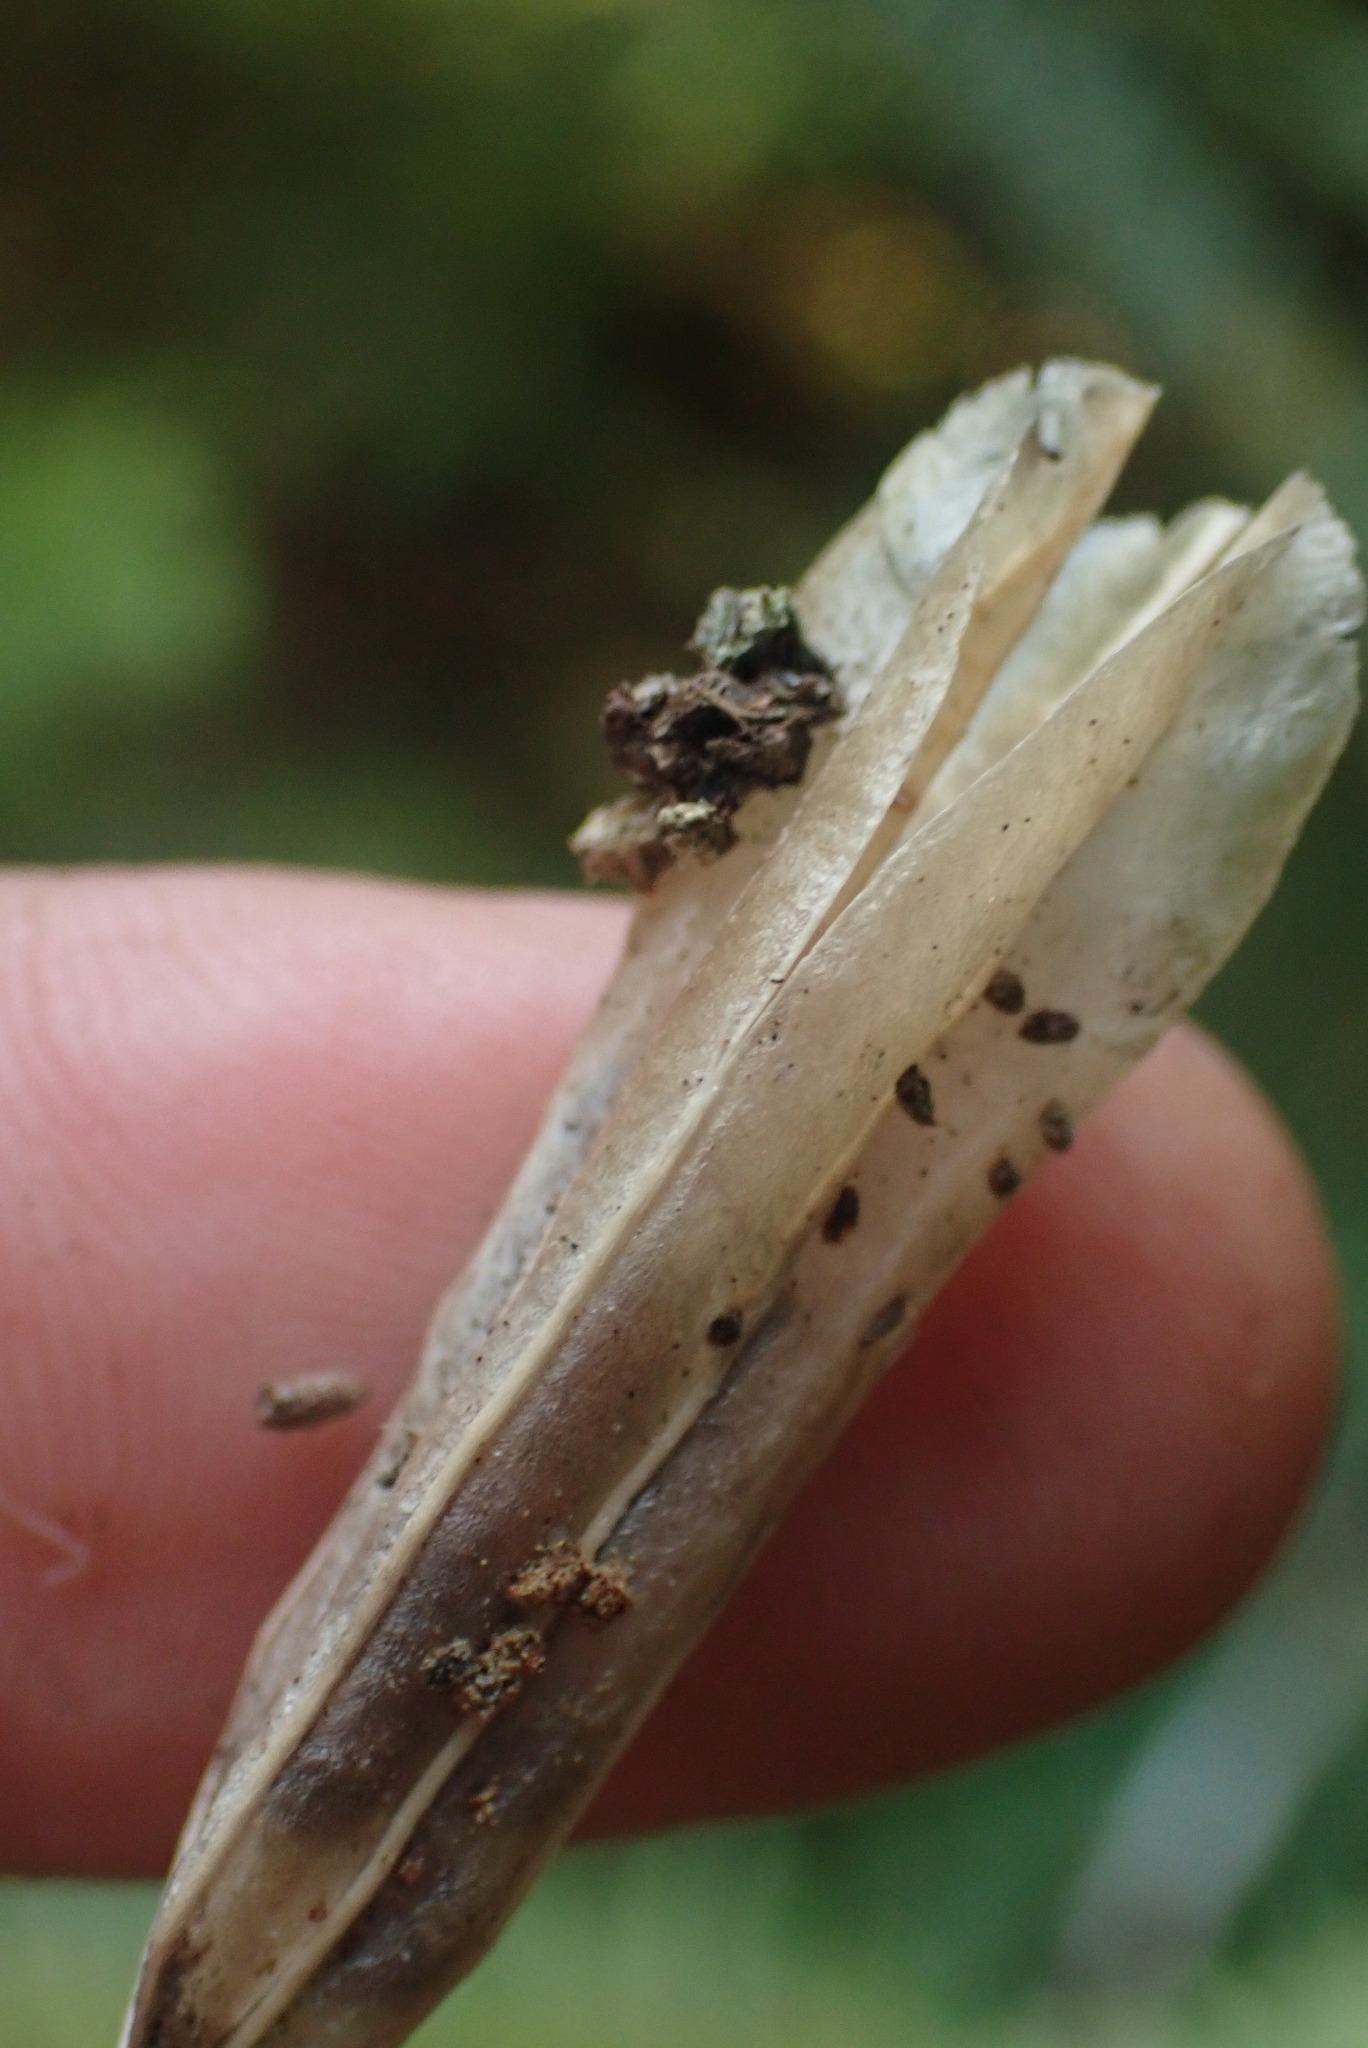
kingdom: Plantae
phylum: Tracheophyta
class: Liliopsida
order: Liliales
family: Liliaceae
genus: Erythronium
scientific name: Erythronium revolutum
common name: Pink fawn-lily
